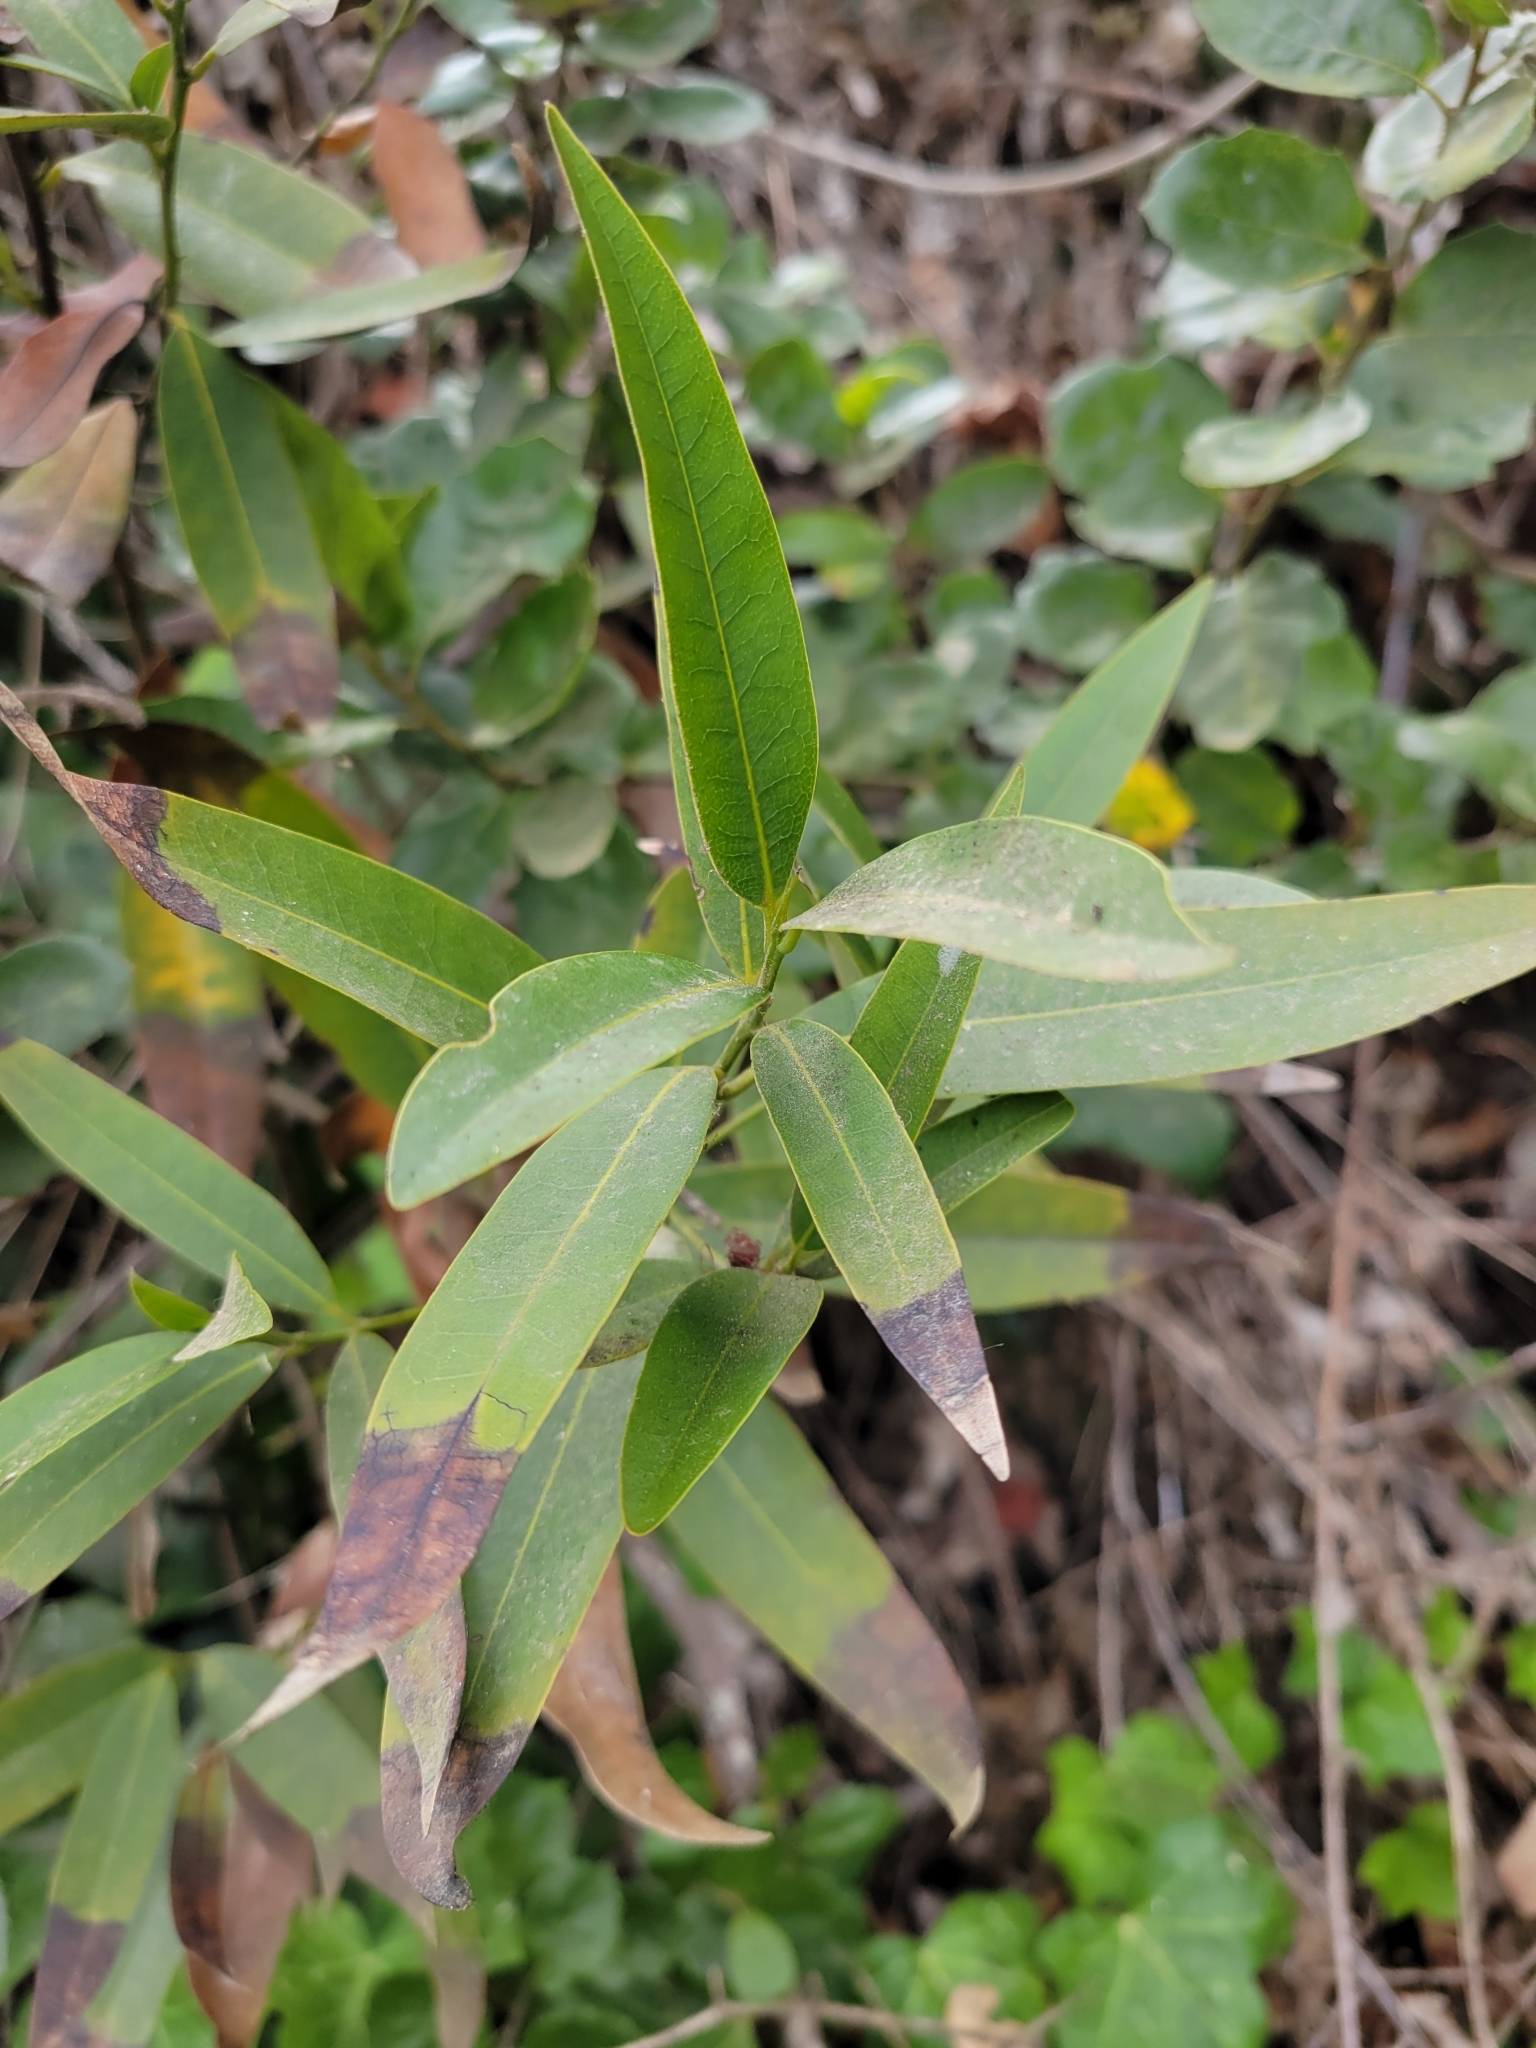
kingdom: Plantae
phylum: Tracheophyta
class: Magnoliopsida
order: Laurales
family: Lauraceae
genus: Umbellularia
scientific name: Umbellularia californica
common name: California bay
